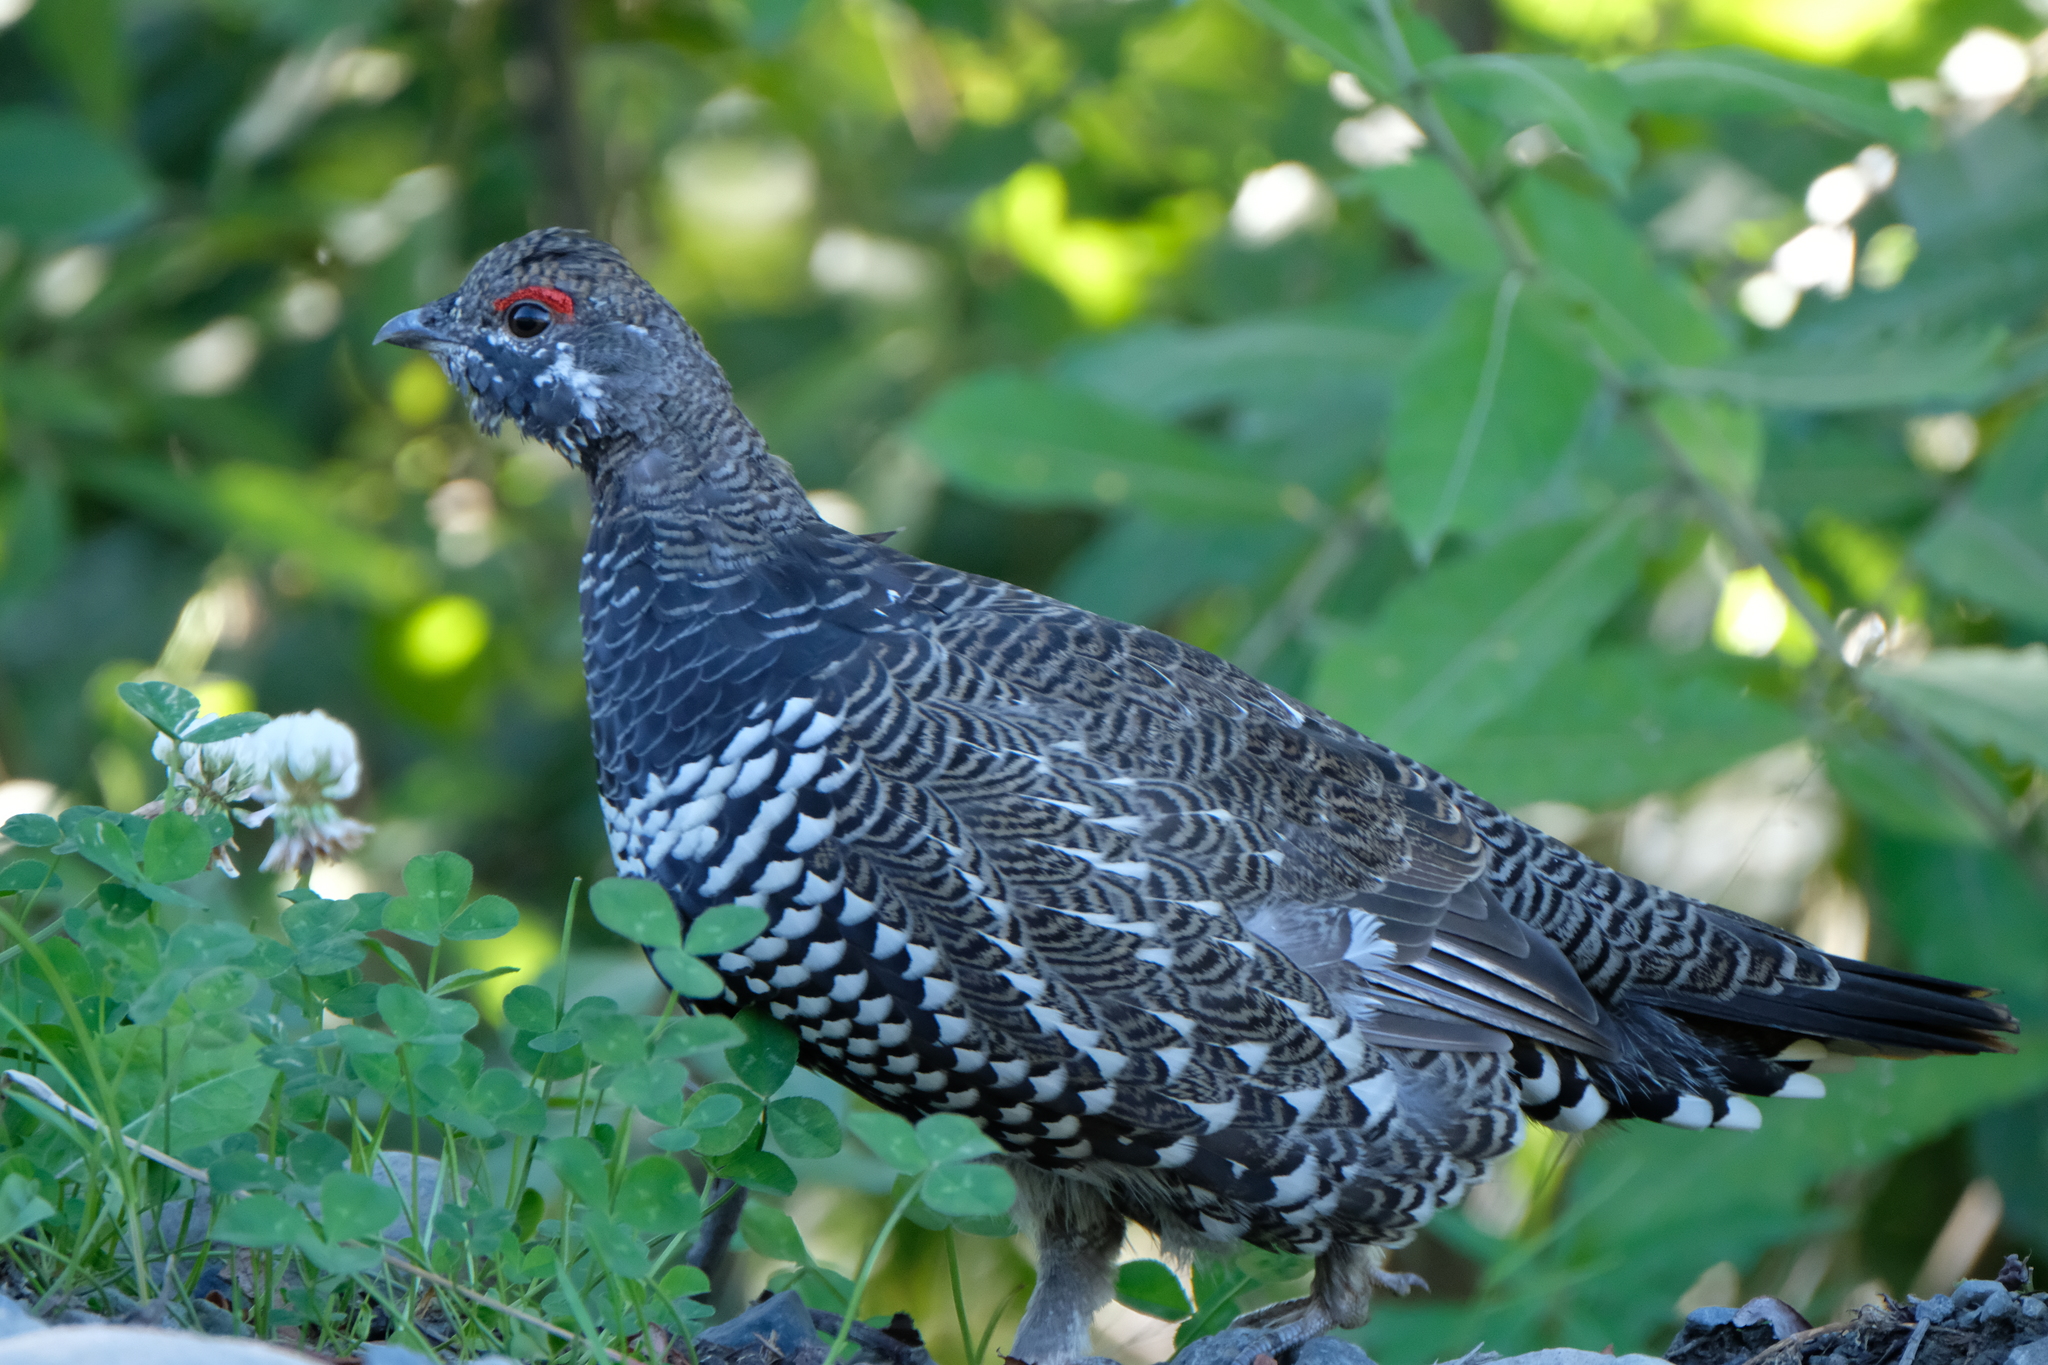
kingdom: Animalia
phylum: Chordata
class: Aves
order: Galliformes
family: Phasianidae
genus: Canachites
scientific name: Canachites canadensis
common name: Spruce grouse
